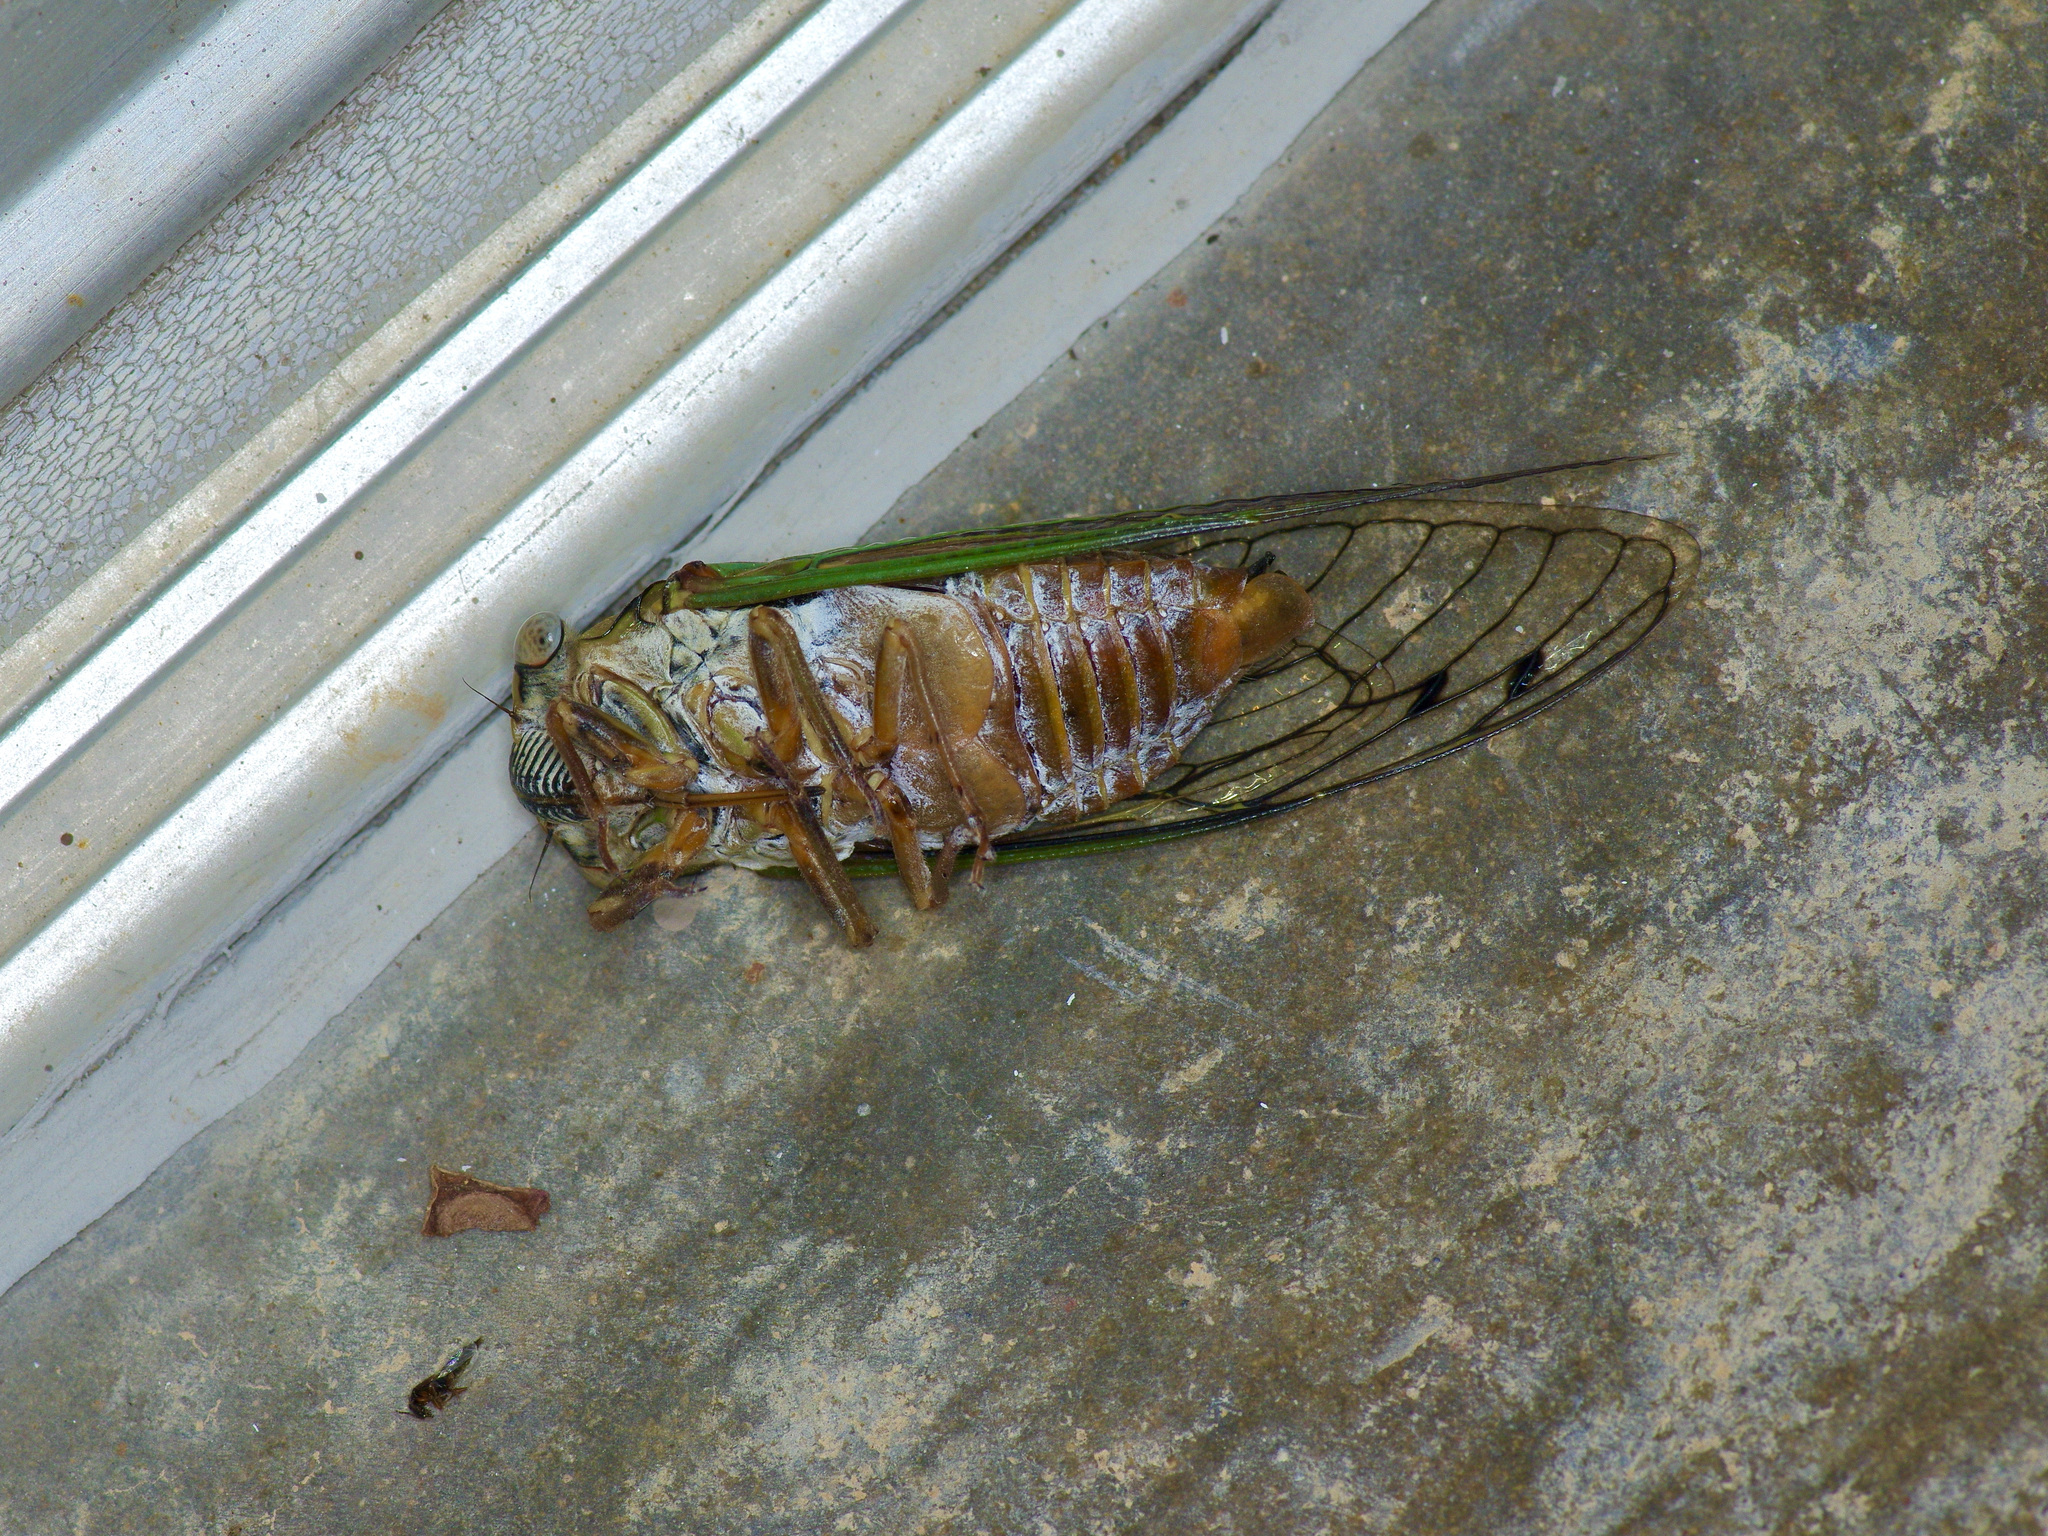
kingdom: Animalia
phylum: Arthropoda
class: Insecta
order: Hemiptera
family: Cicadidae
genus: Megatibicen
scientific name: Megatibicen resh
